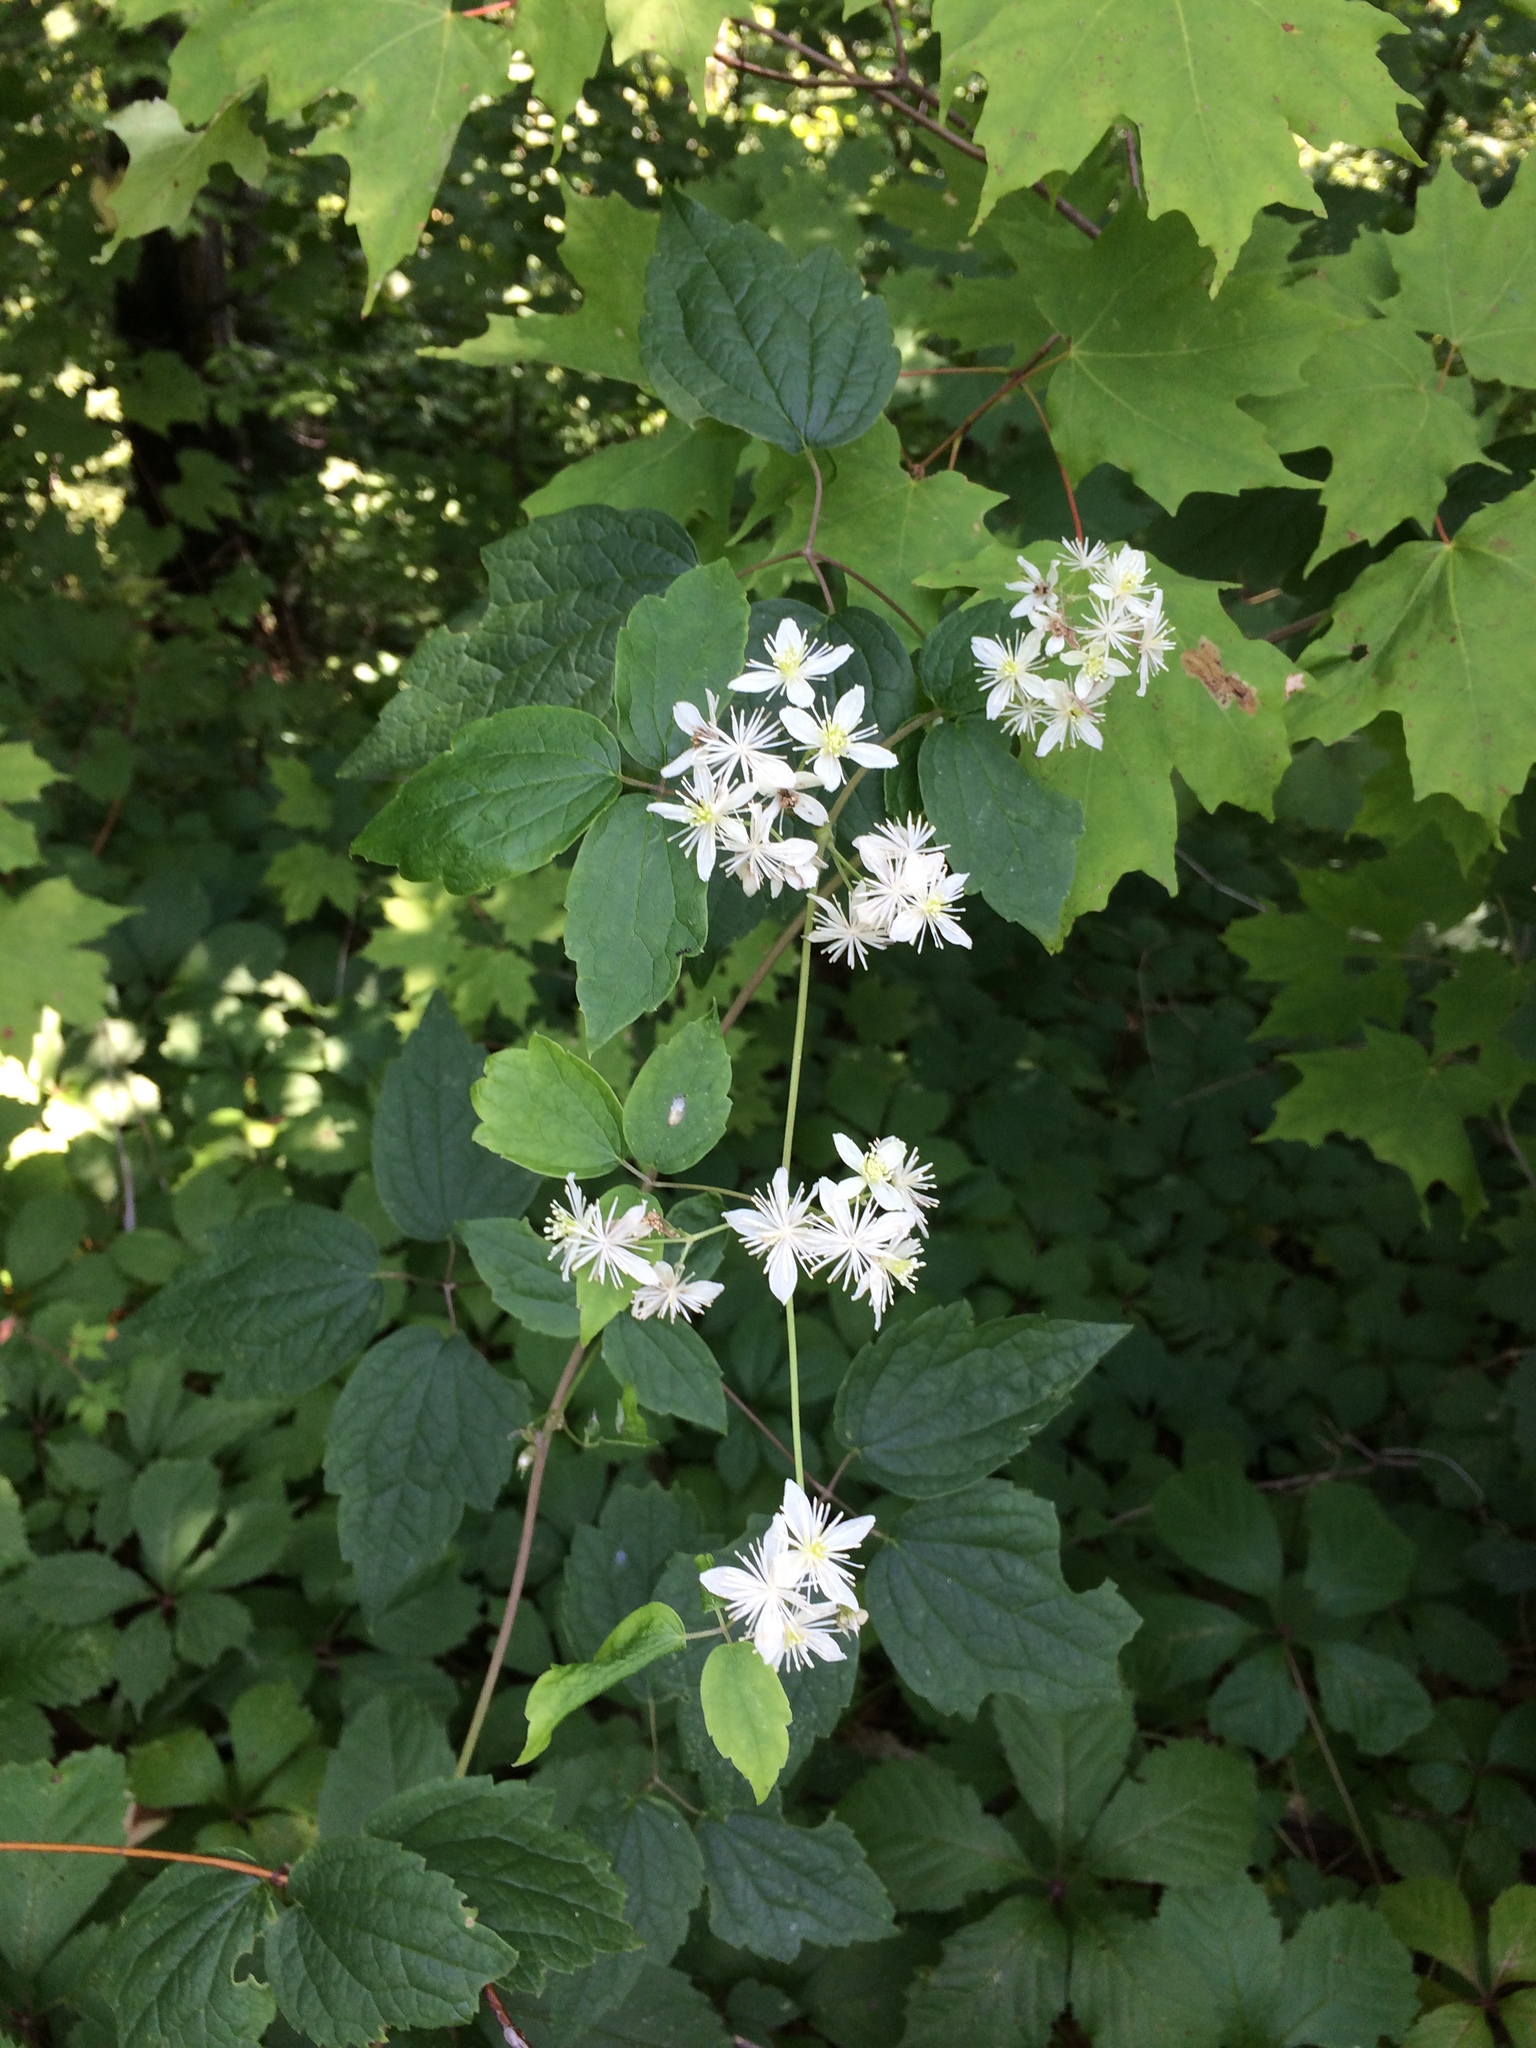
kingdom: Plantae
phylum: Tracheophyta
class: Magnoliopsida
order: Ranunculales
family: Ranunculaceae
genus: Clematis
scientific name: Clematis virginiana
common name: Virgin's-bower
